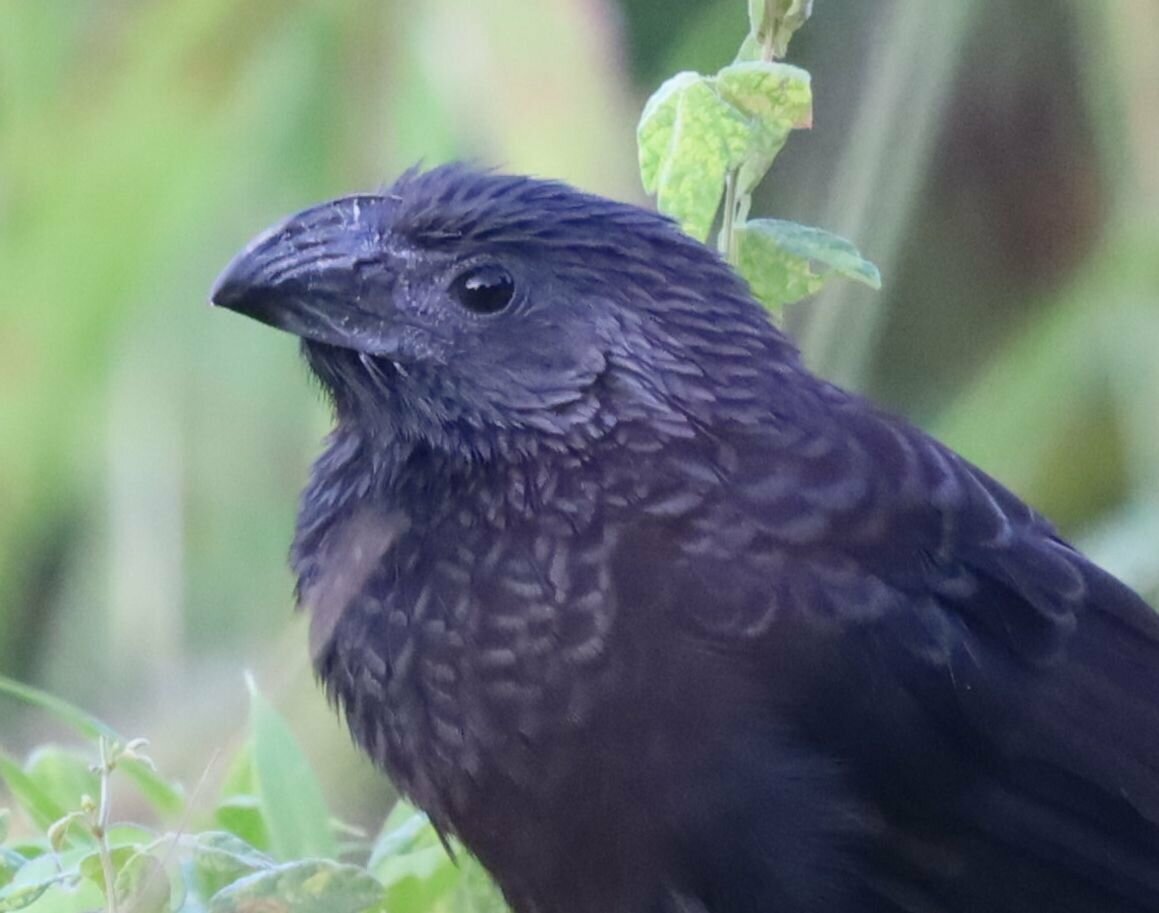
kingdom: Animalia
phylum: Chordata
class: Aves
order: Cuculiformes
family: Cuculidae
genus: Crotophaga
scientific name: Crotophaga sulcirostris
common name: Groove-billed ani
